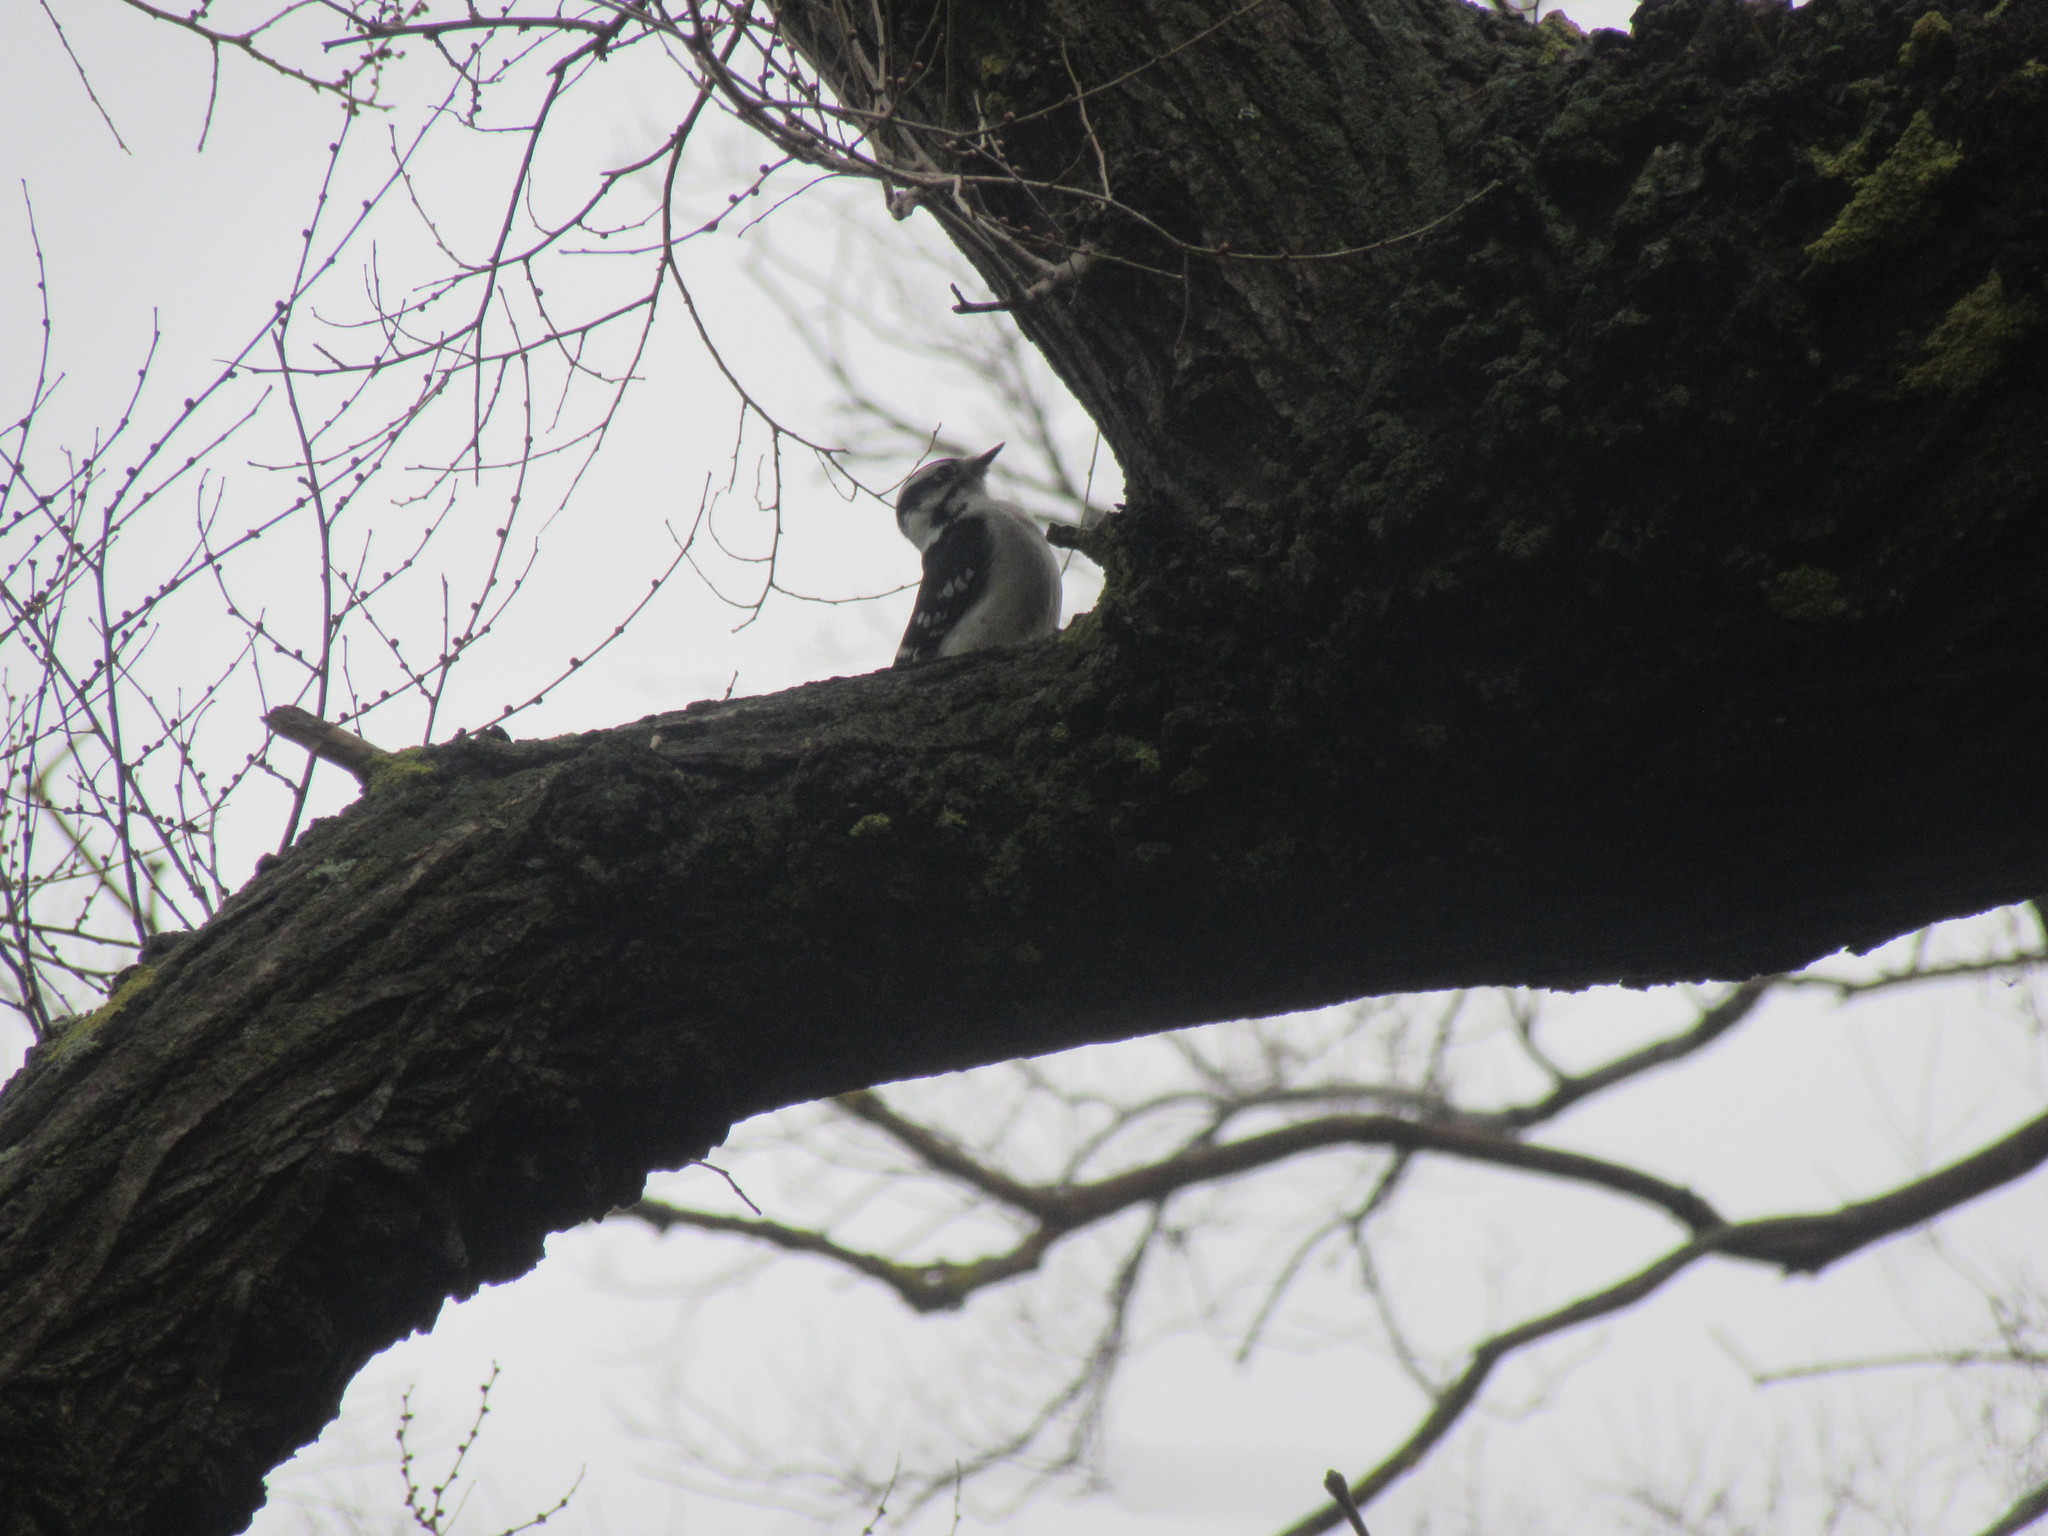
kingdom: Animalia
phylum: Chordata
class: Aves
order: Piciformes
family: Picidae
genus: Dryobates
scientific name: Dryobates pubescens
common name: Downy woodpecker
